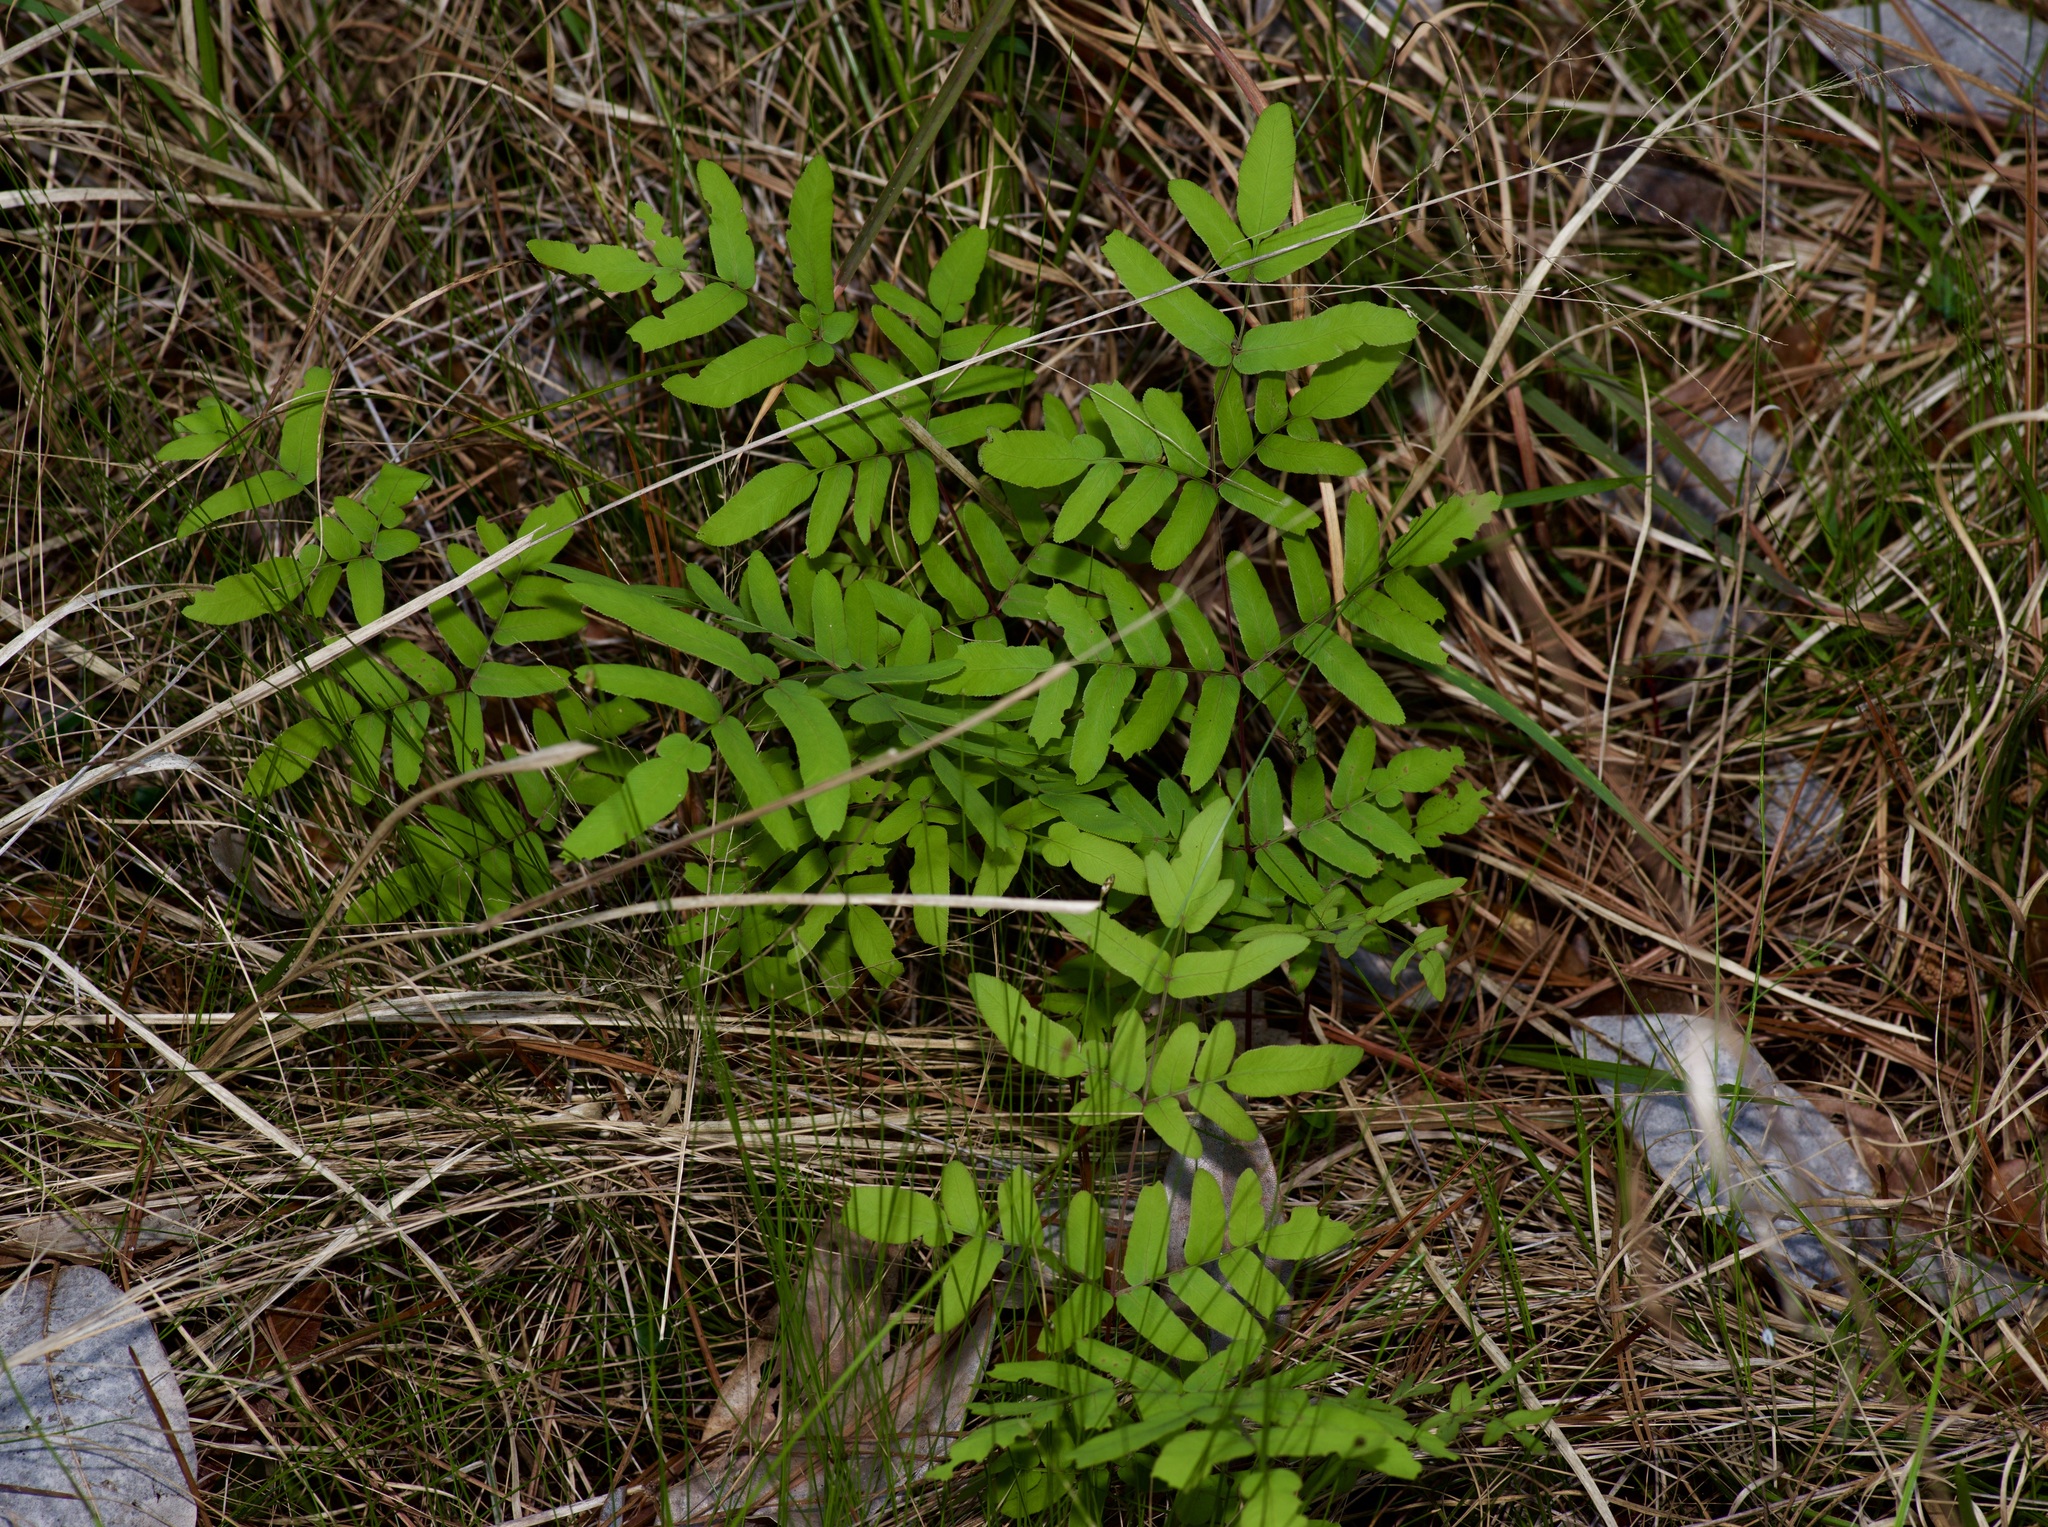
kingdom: Plantae
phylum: Tracheophyta
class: Polypodiopsida
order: Osmundales
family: Osmundaceae
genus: Osmunda
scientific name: Osmunda spectabilis
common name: American royal fern
